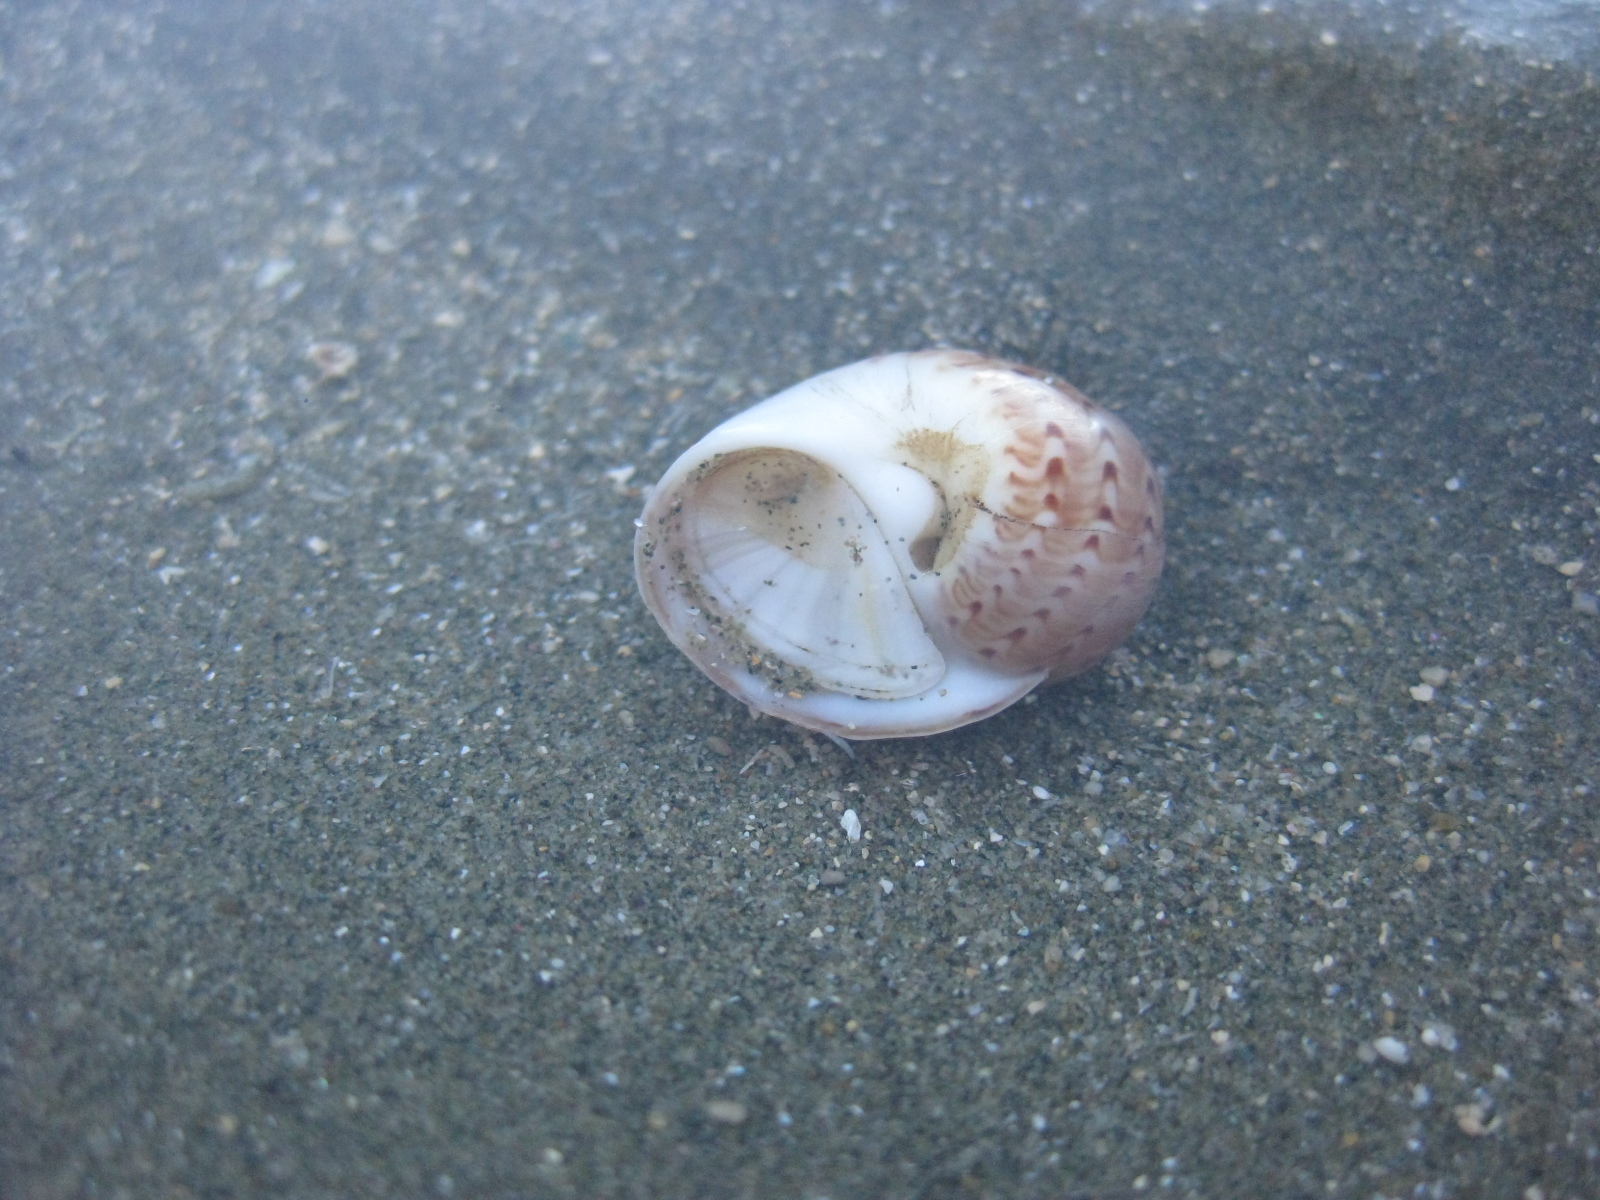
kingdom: Animalia
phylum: Mollusca
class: Gastropoda
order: Littorinimorpha
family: Naticidae
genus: Tanea
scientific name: Tanea zelandica
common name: New zealand moonsnail
